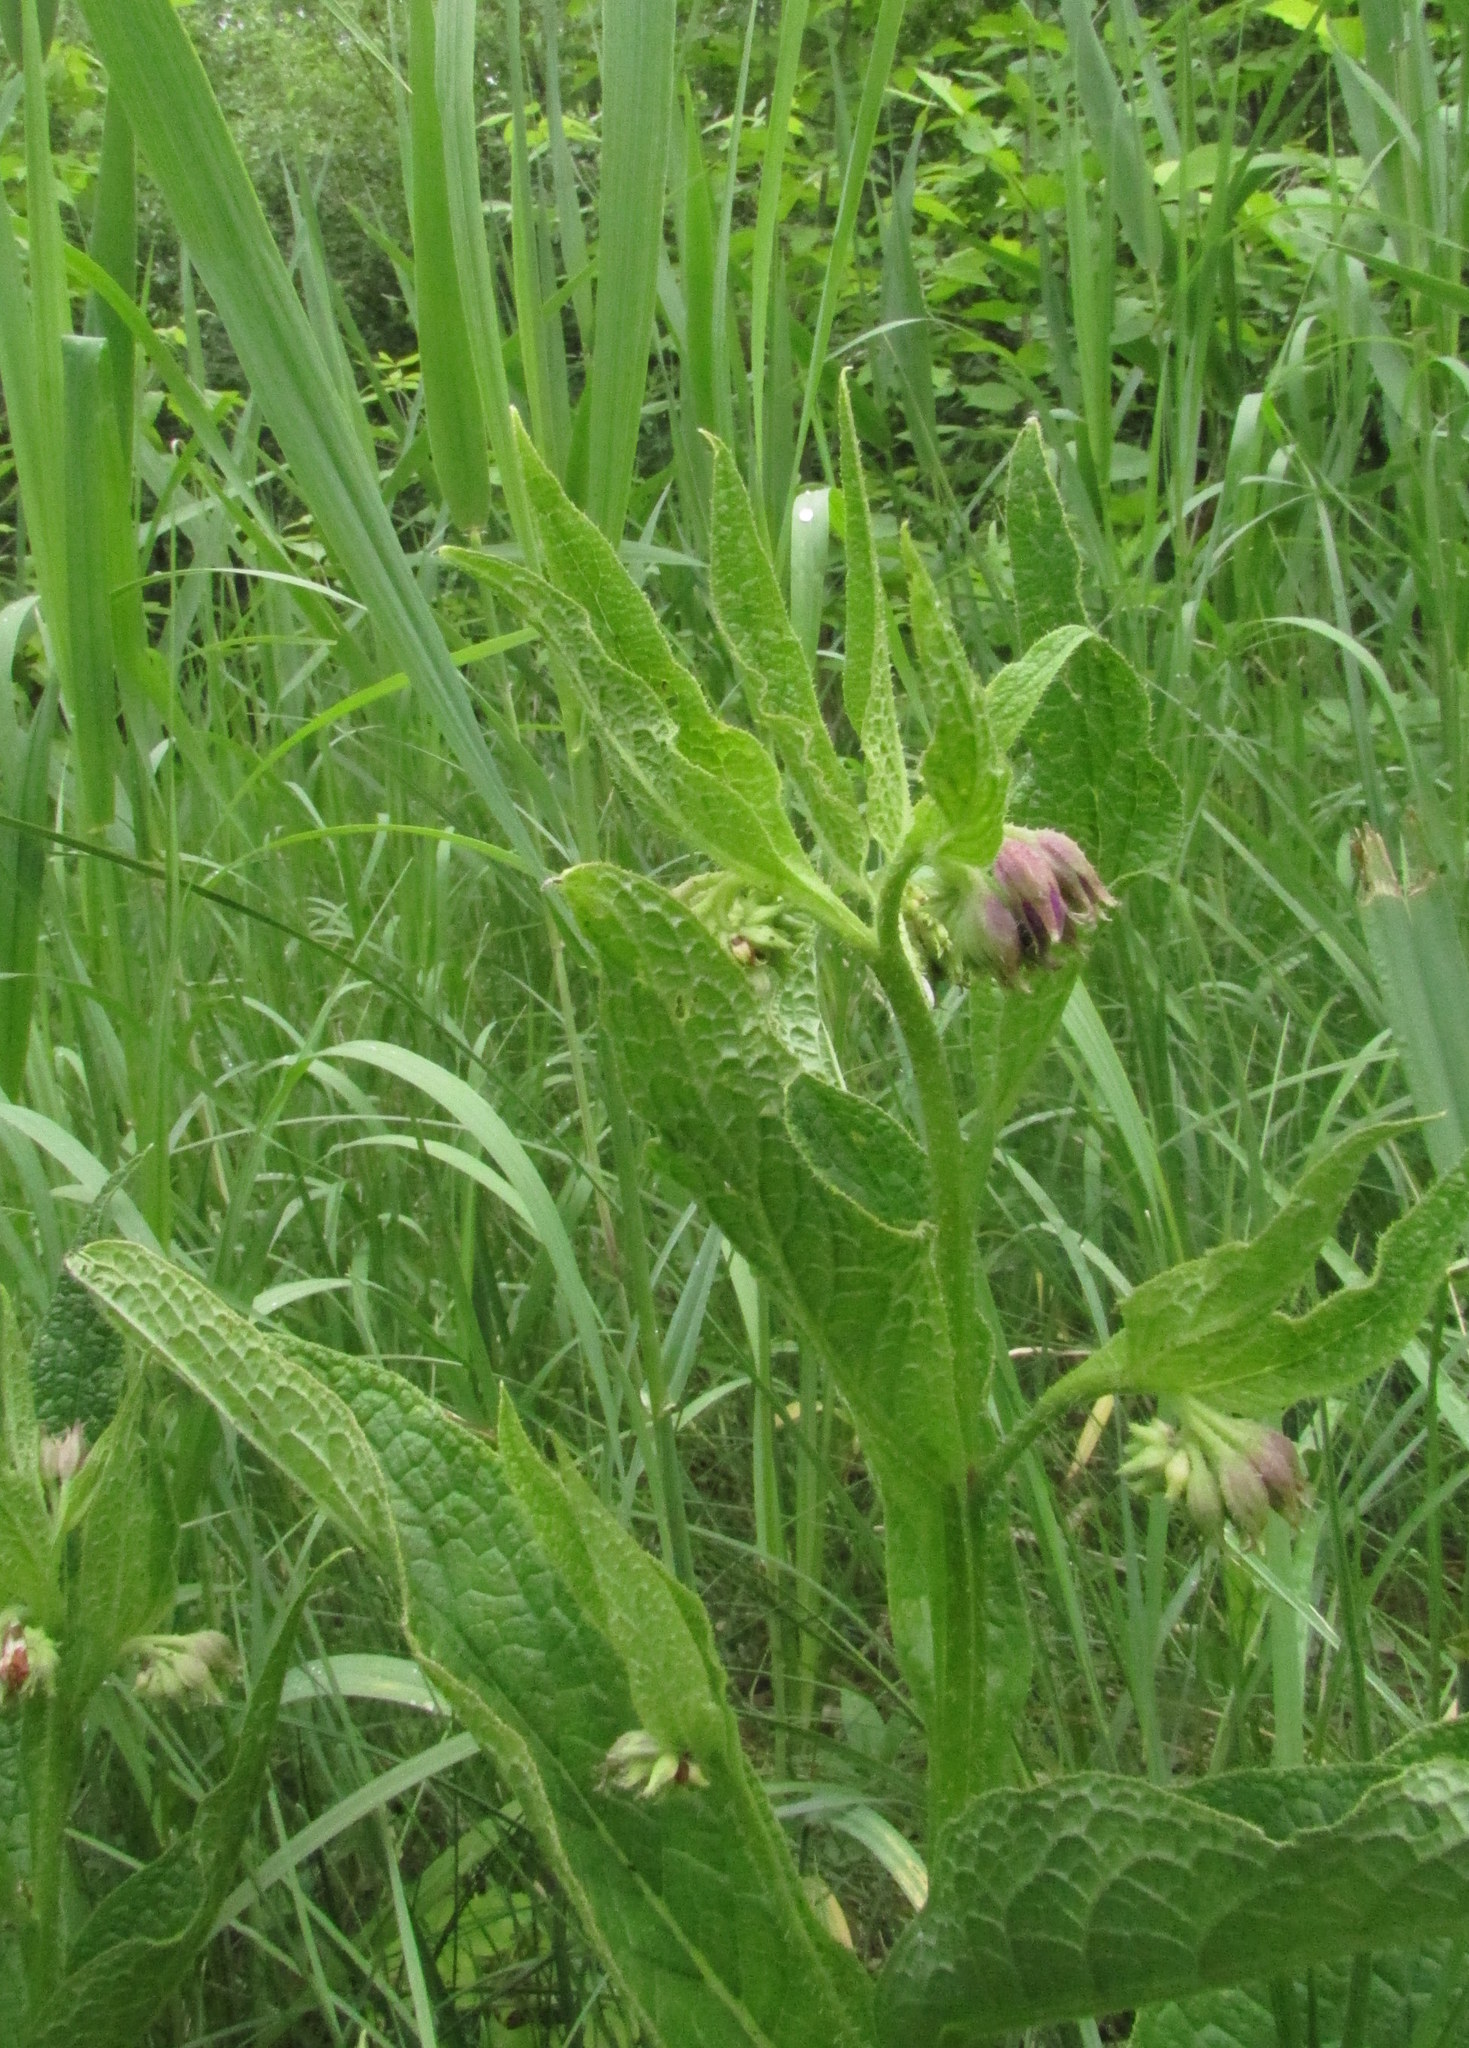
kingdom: Plantae
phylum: Tracheophyta
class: Magnoliopsida
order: Boraginales
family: Boraginaceae
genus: Symphytum
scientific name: Symphytum officinale
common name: Common comfrey
